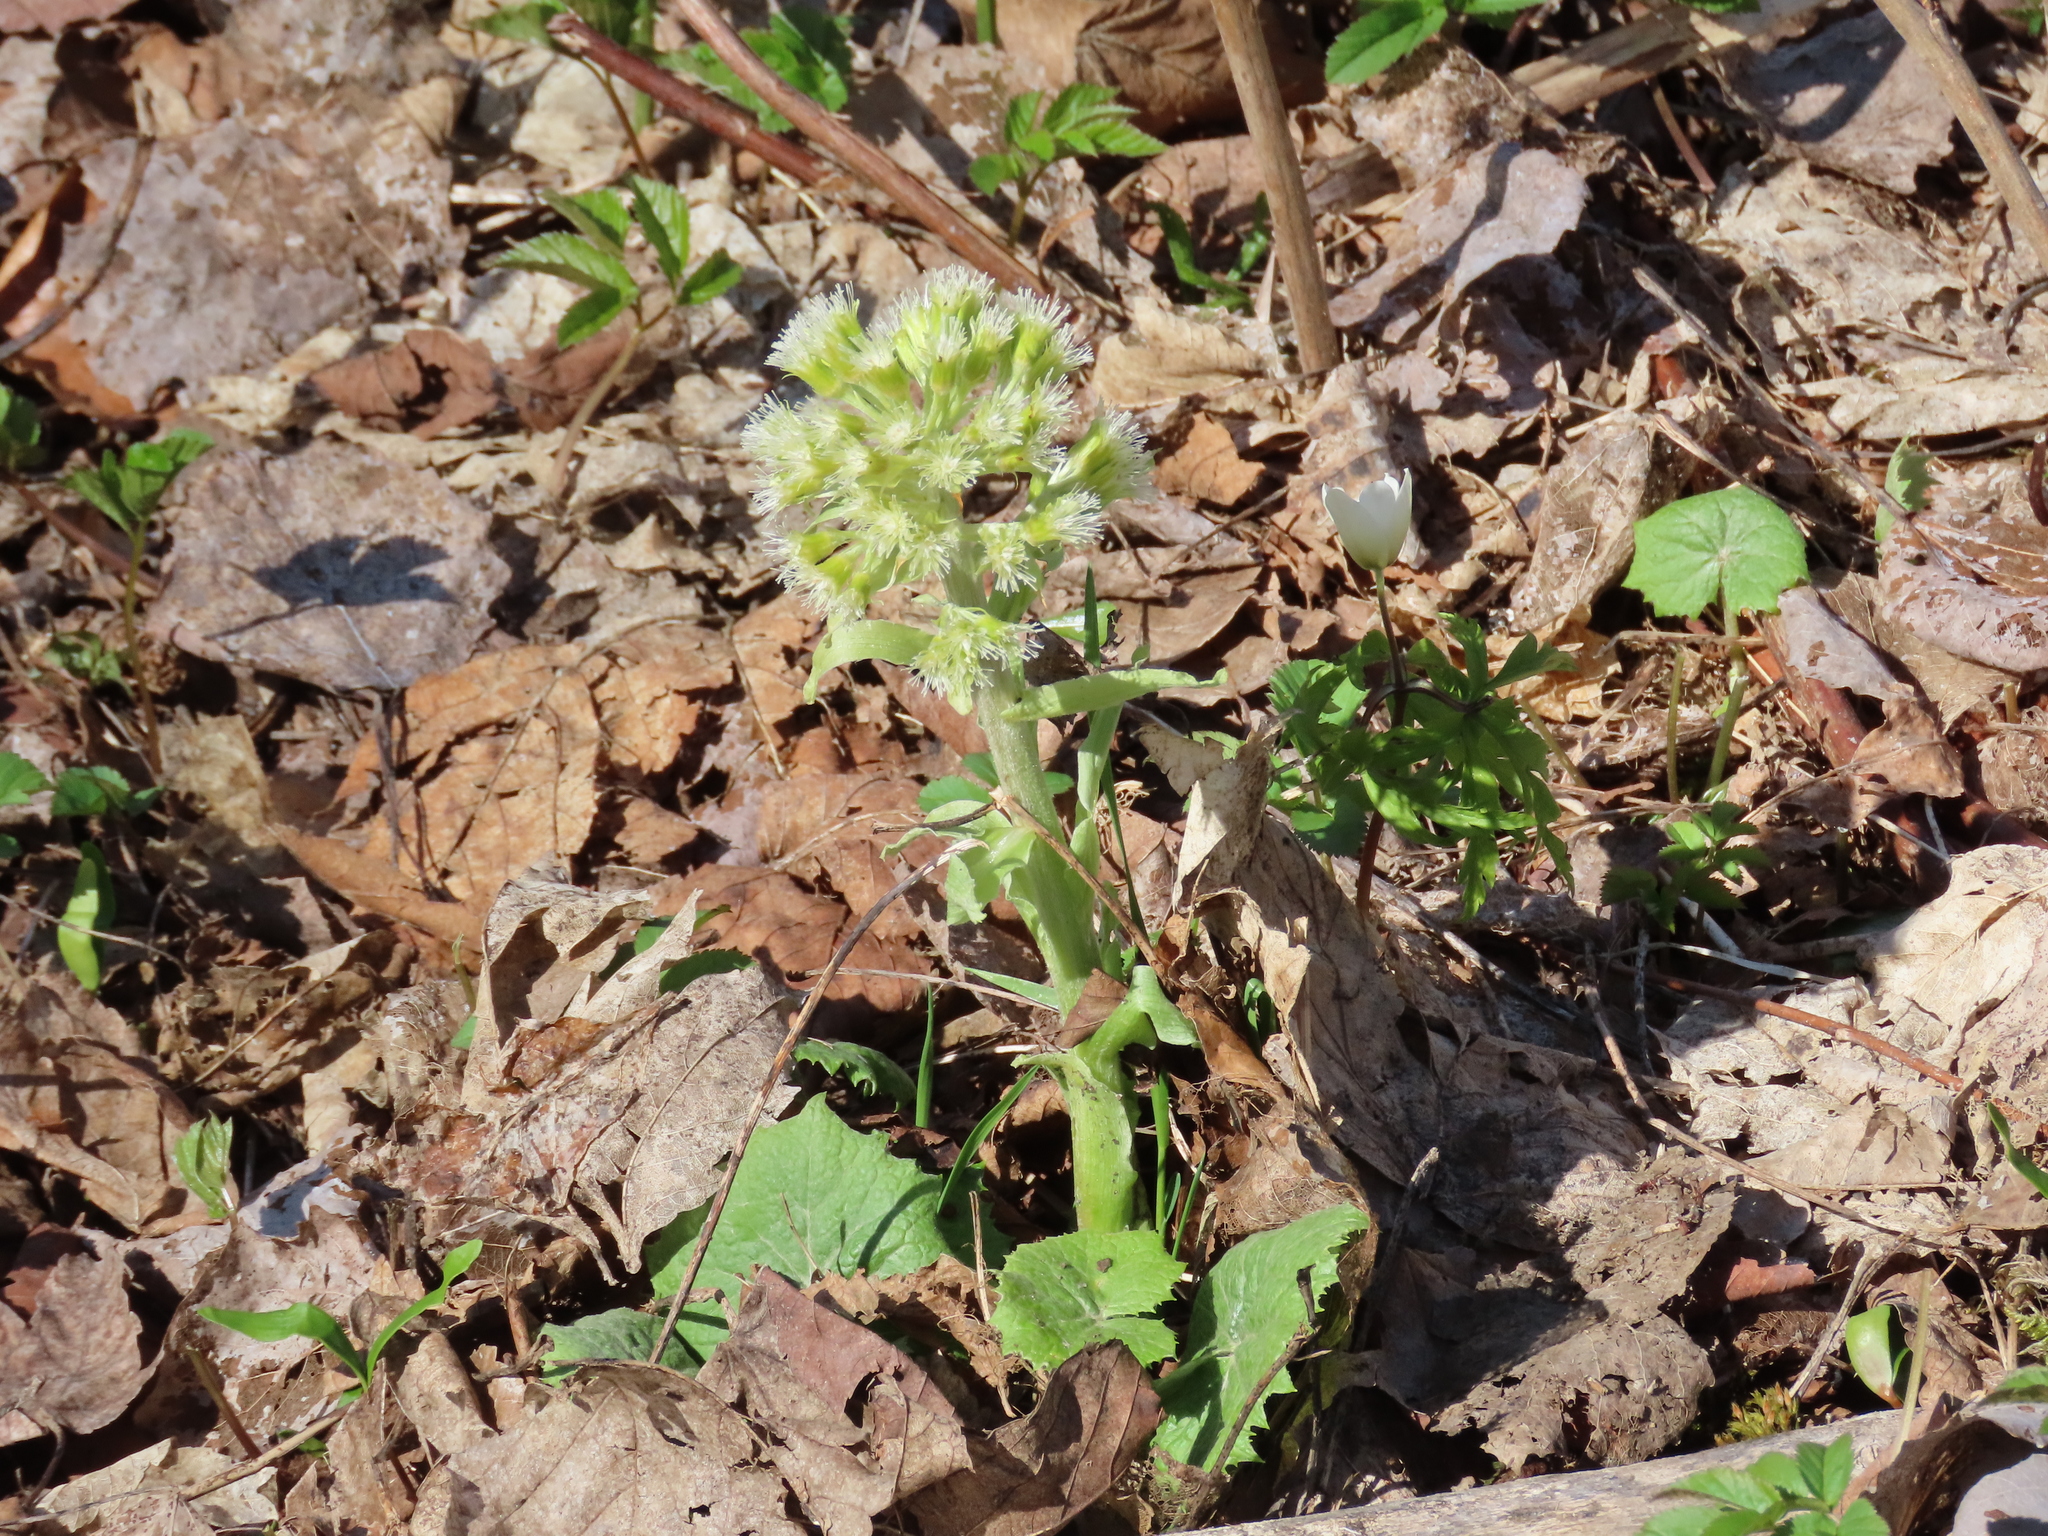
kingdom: Plantae
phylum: Tracheophyta
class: Magnoliopsida
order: Asterales
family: Asteraceae
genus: Petasites
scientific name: Petasites albus
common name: White butterbur
